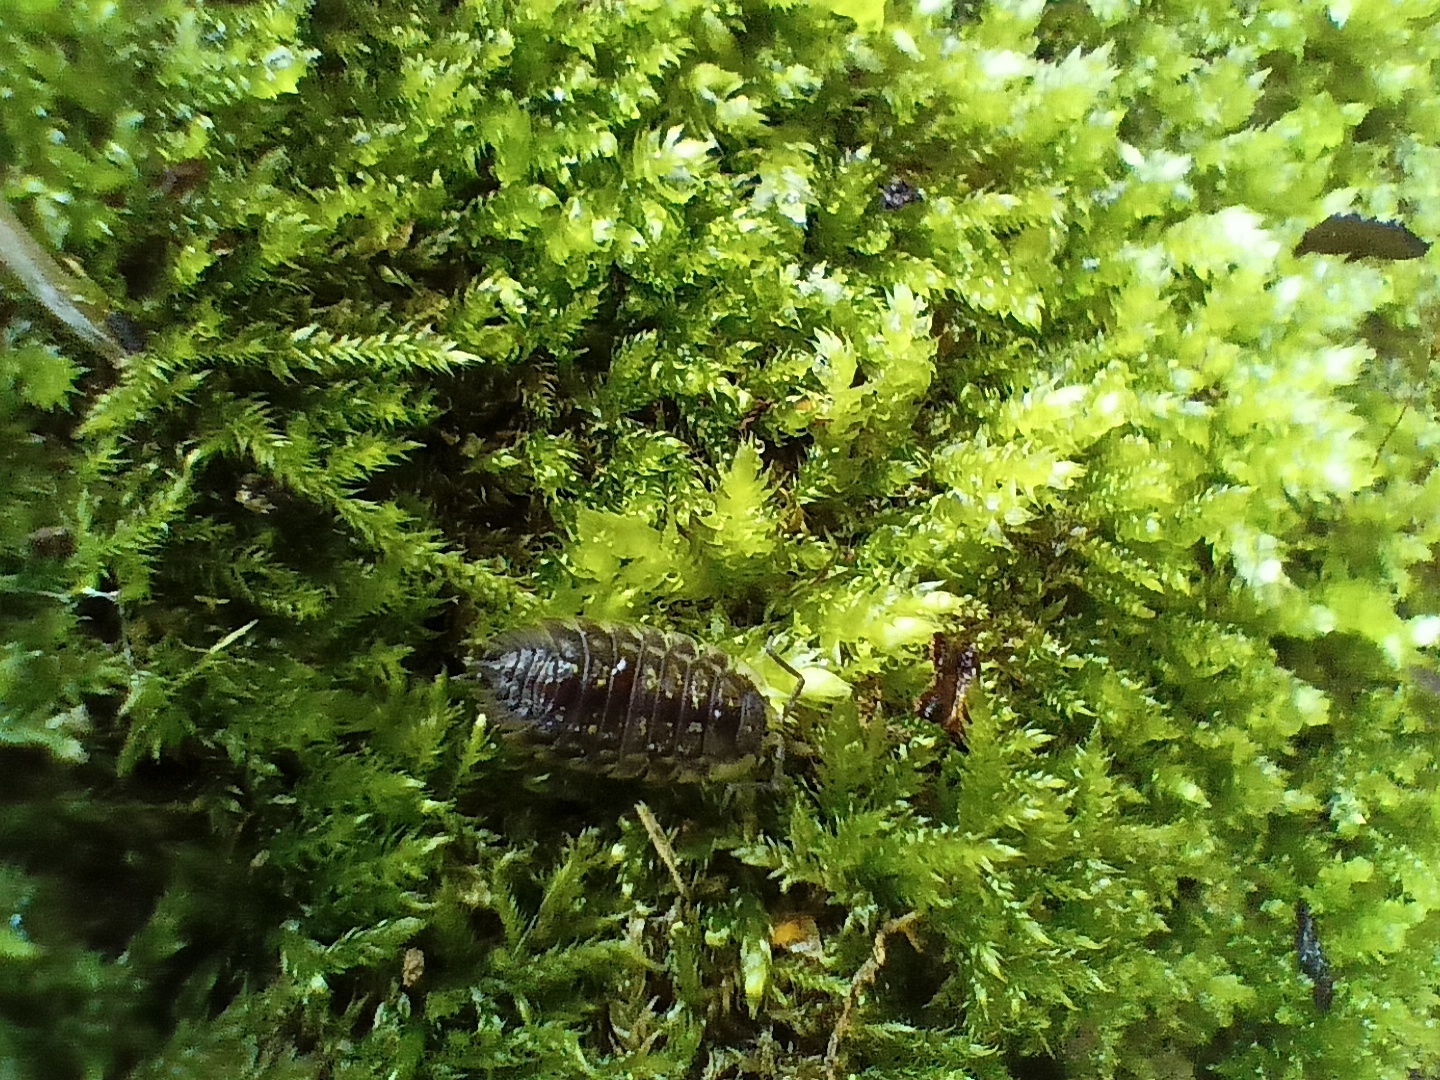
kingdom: Animalia
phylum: Arthropoda
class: Malacostraca
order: Isopoda
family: Oniscidae
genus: Oniscus
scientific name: Oniscus asellus
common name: Common shiny woodlouse
